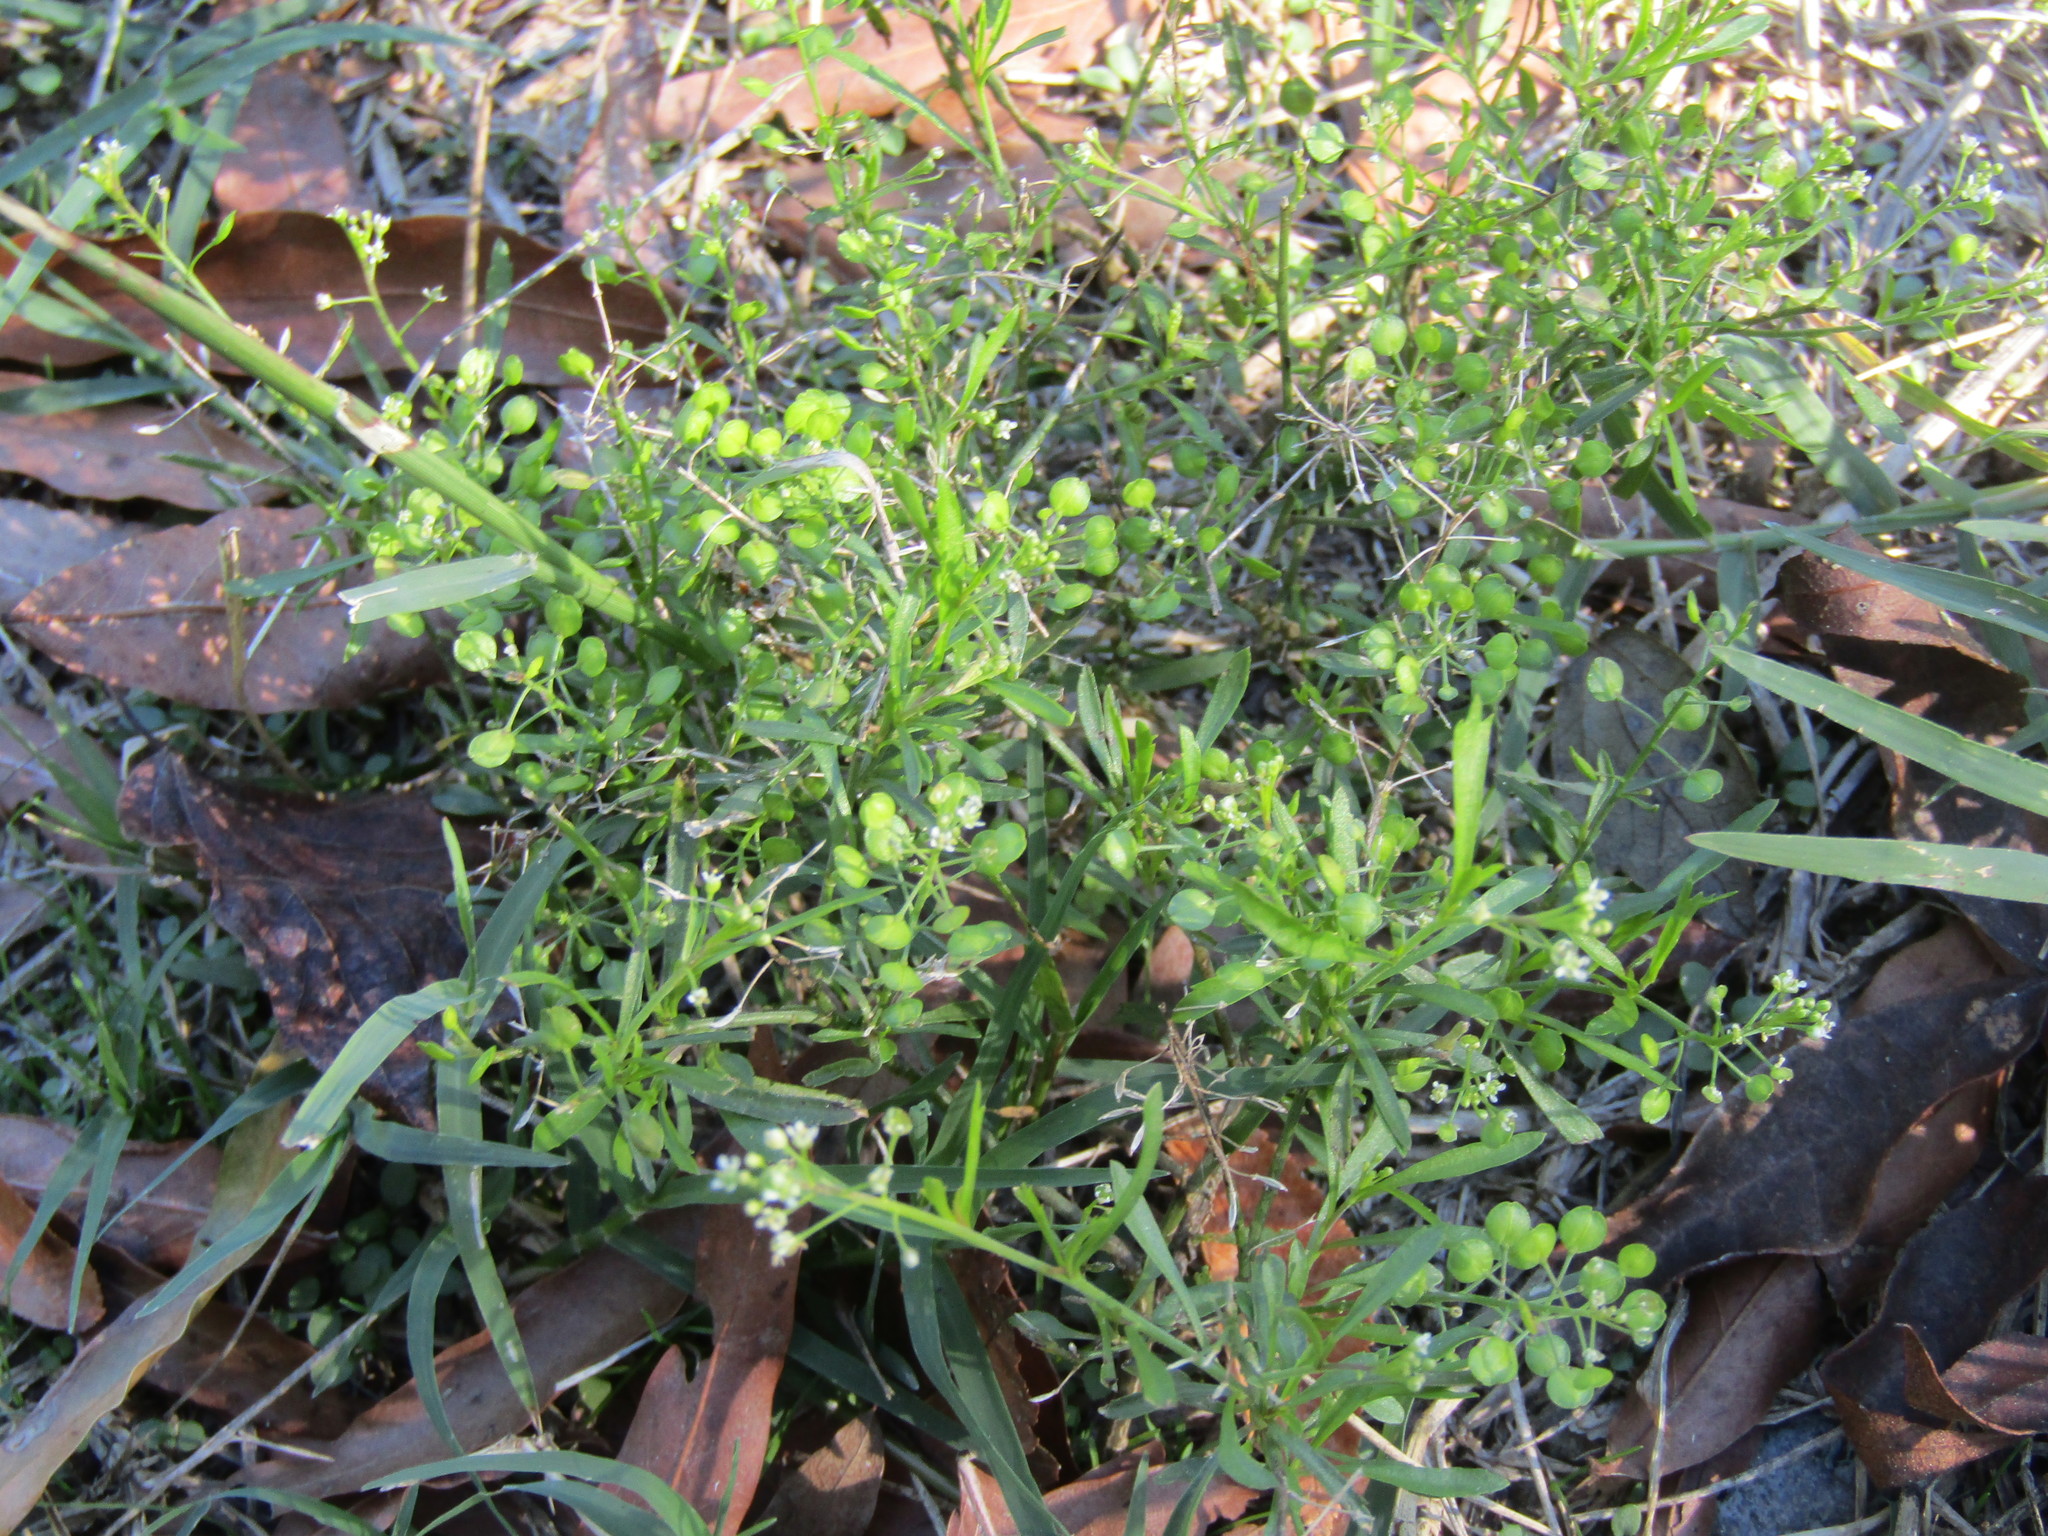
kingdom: Plantae
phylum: Tracheophyta
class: Magnoliopsida
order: Brassicales
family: Brassicaceae
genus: Lepidium
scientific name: Lepidium virginicum
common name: Least pepperwort
